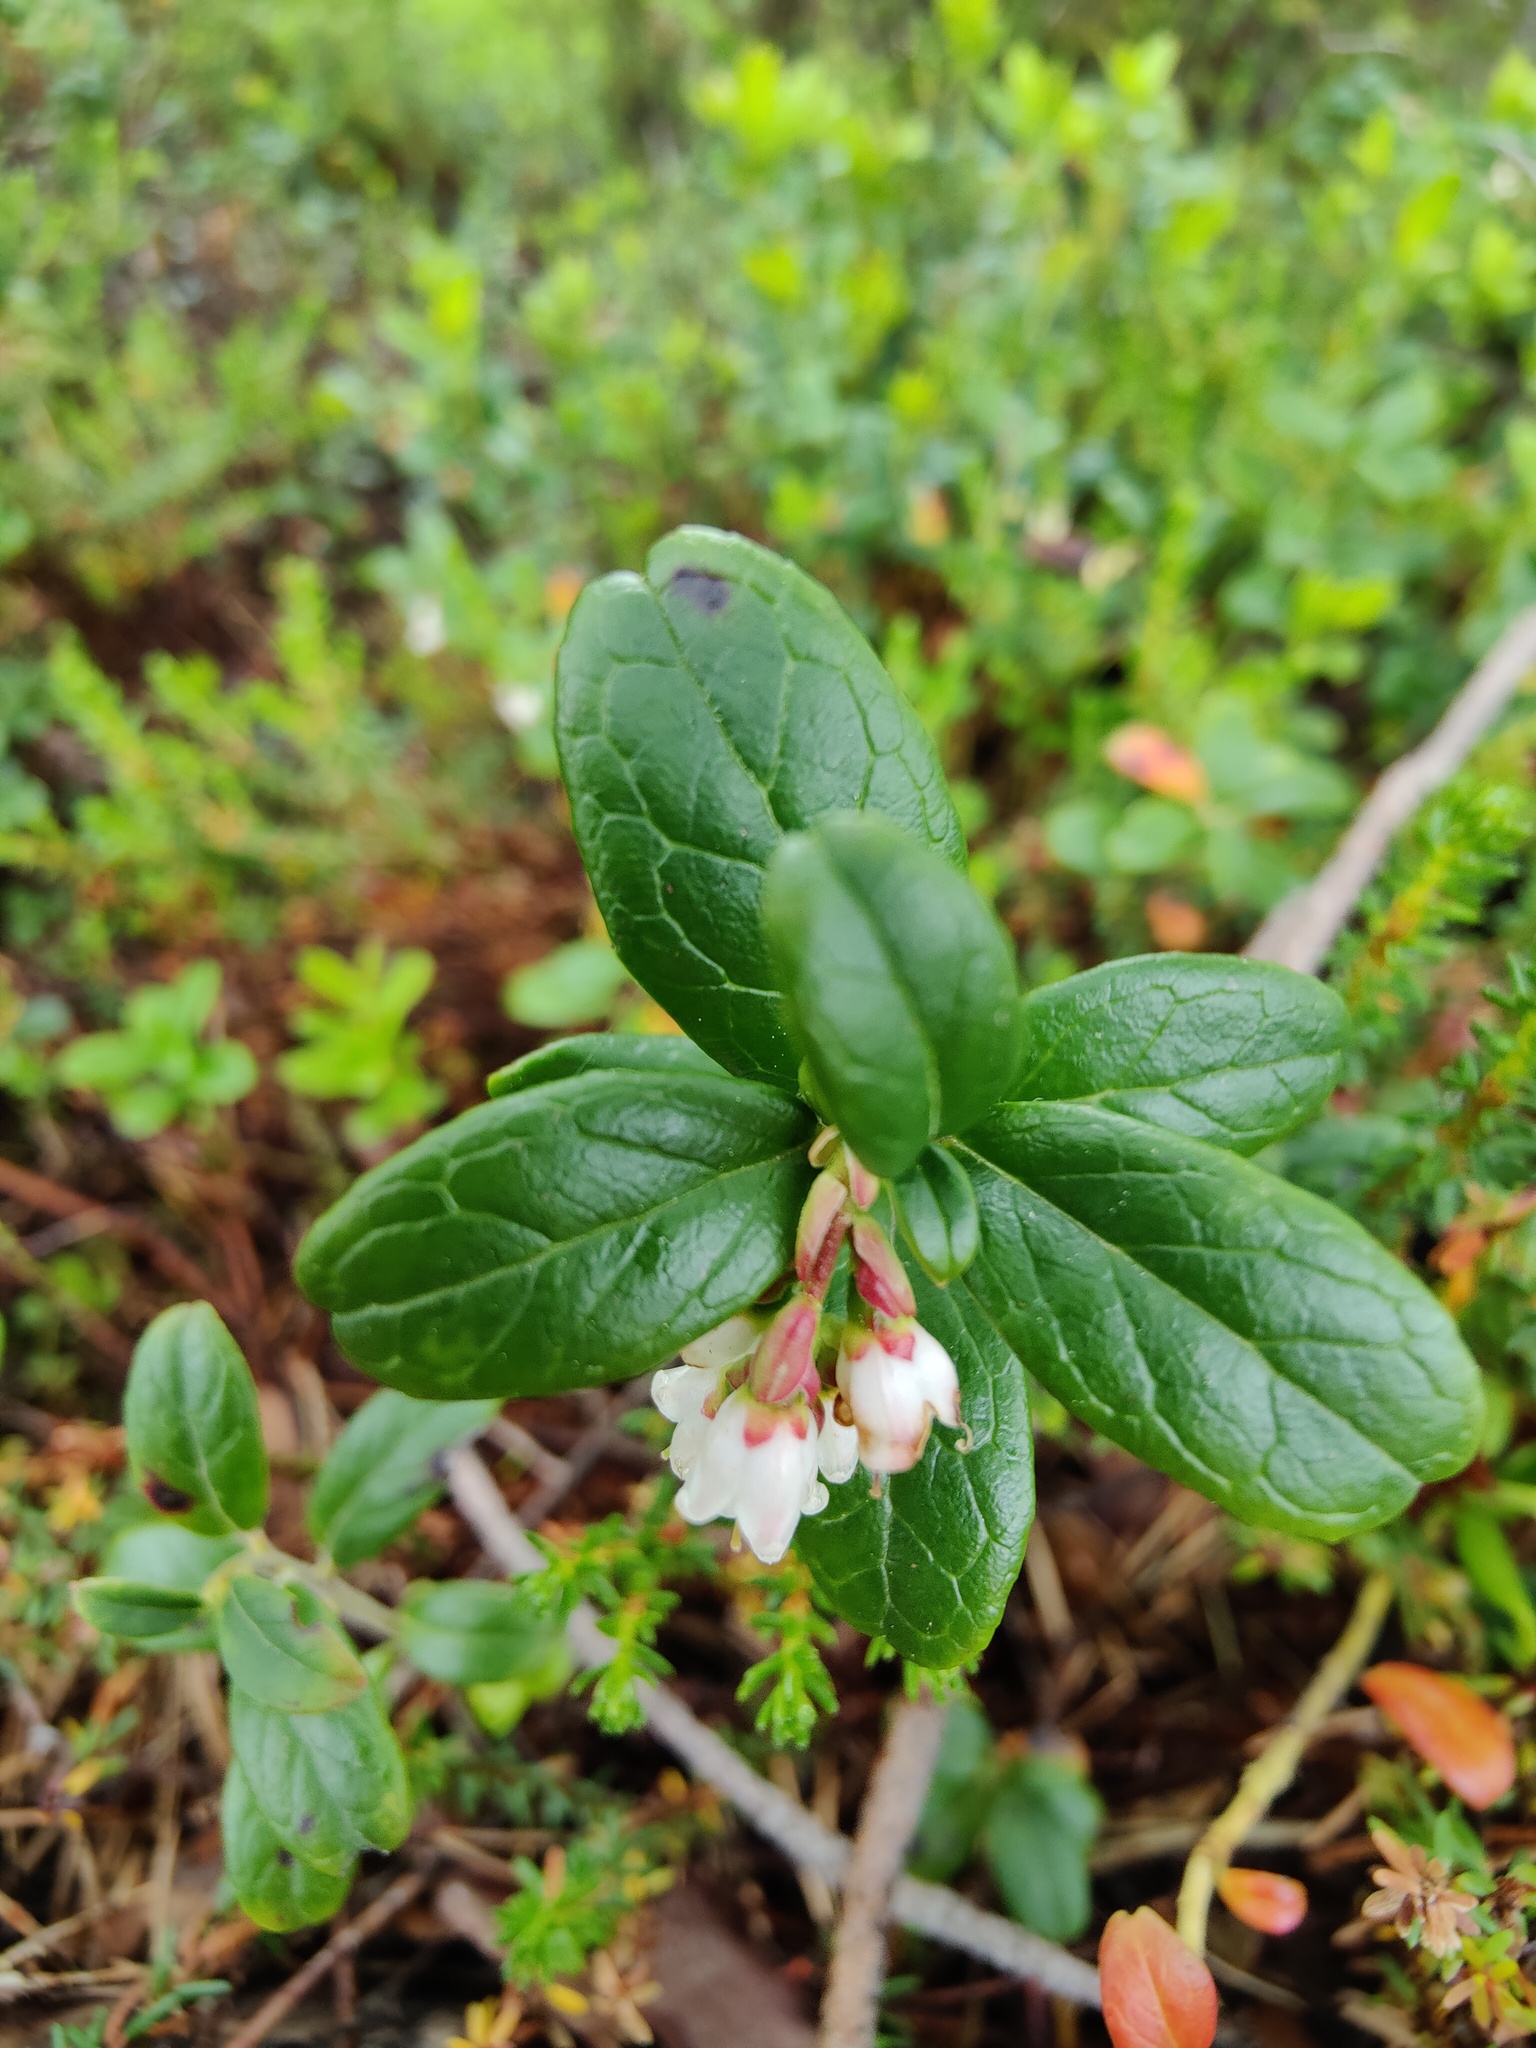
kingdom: Plantae
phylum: Tracheophyta
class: Magnoliopsida
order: Ericales
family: Ericaceae
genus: Vaccinium
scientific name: Vaccinium vitis-idaea
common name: Cowberry
